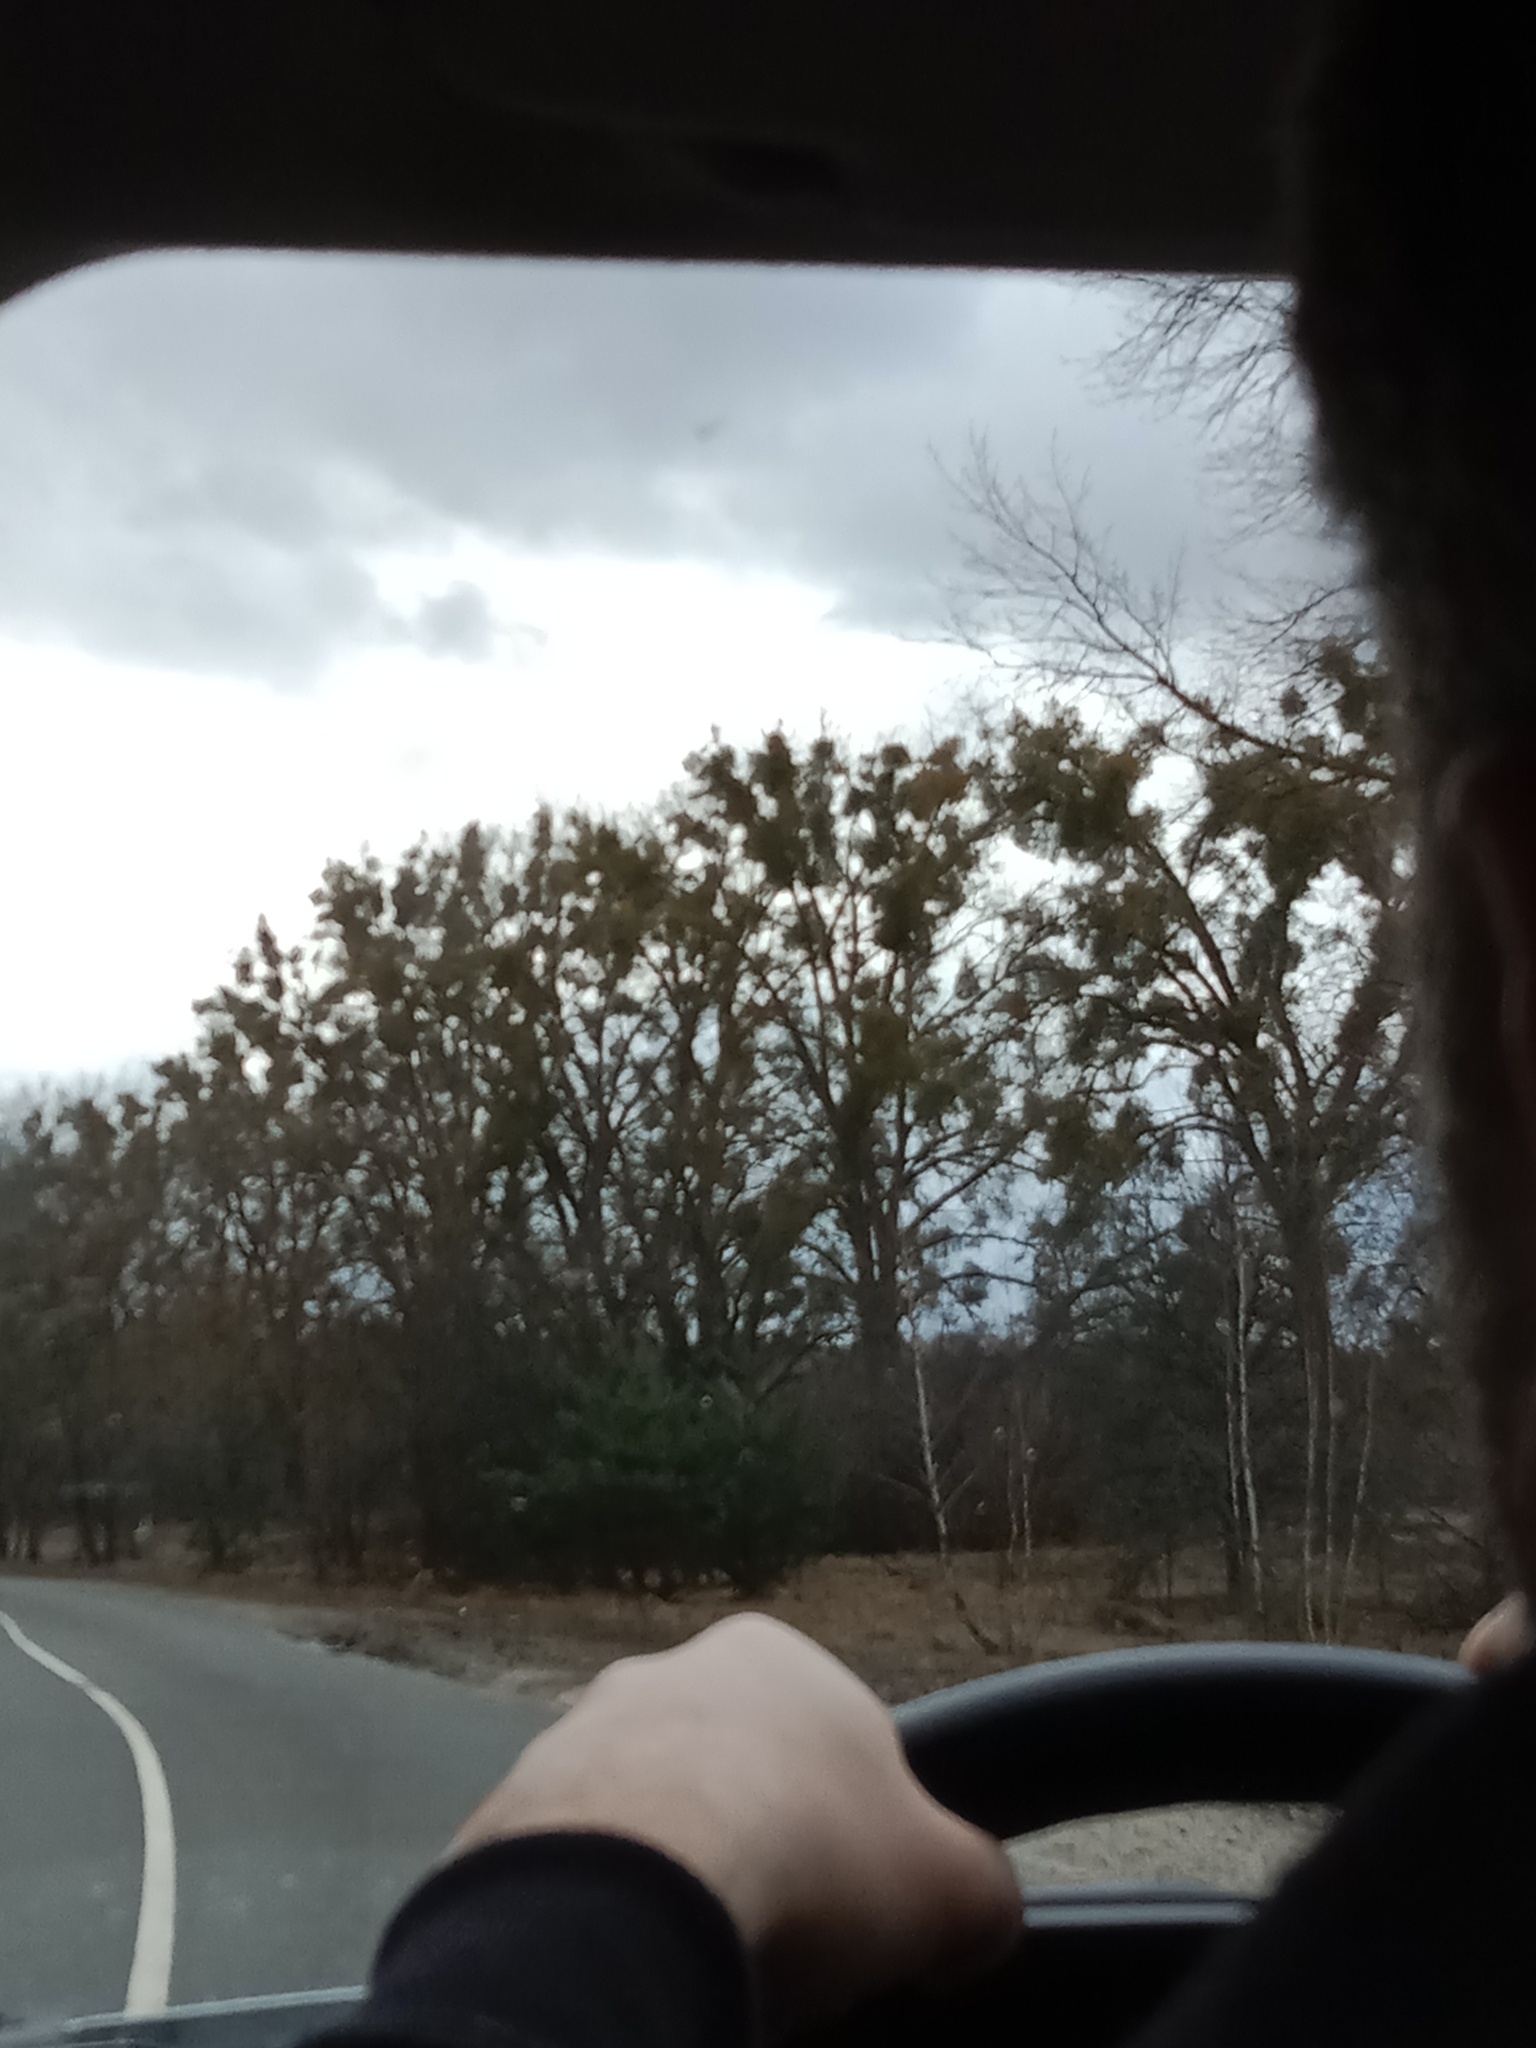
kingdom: Plantae
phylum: Tracheophyta
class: Magnoliopsida
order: Santalales
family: Viscaceae
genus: Viscum
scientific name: Viscum album
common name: Mistletoe
